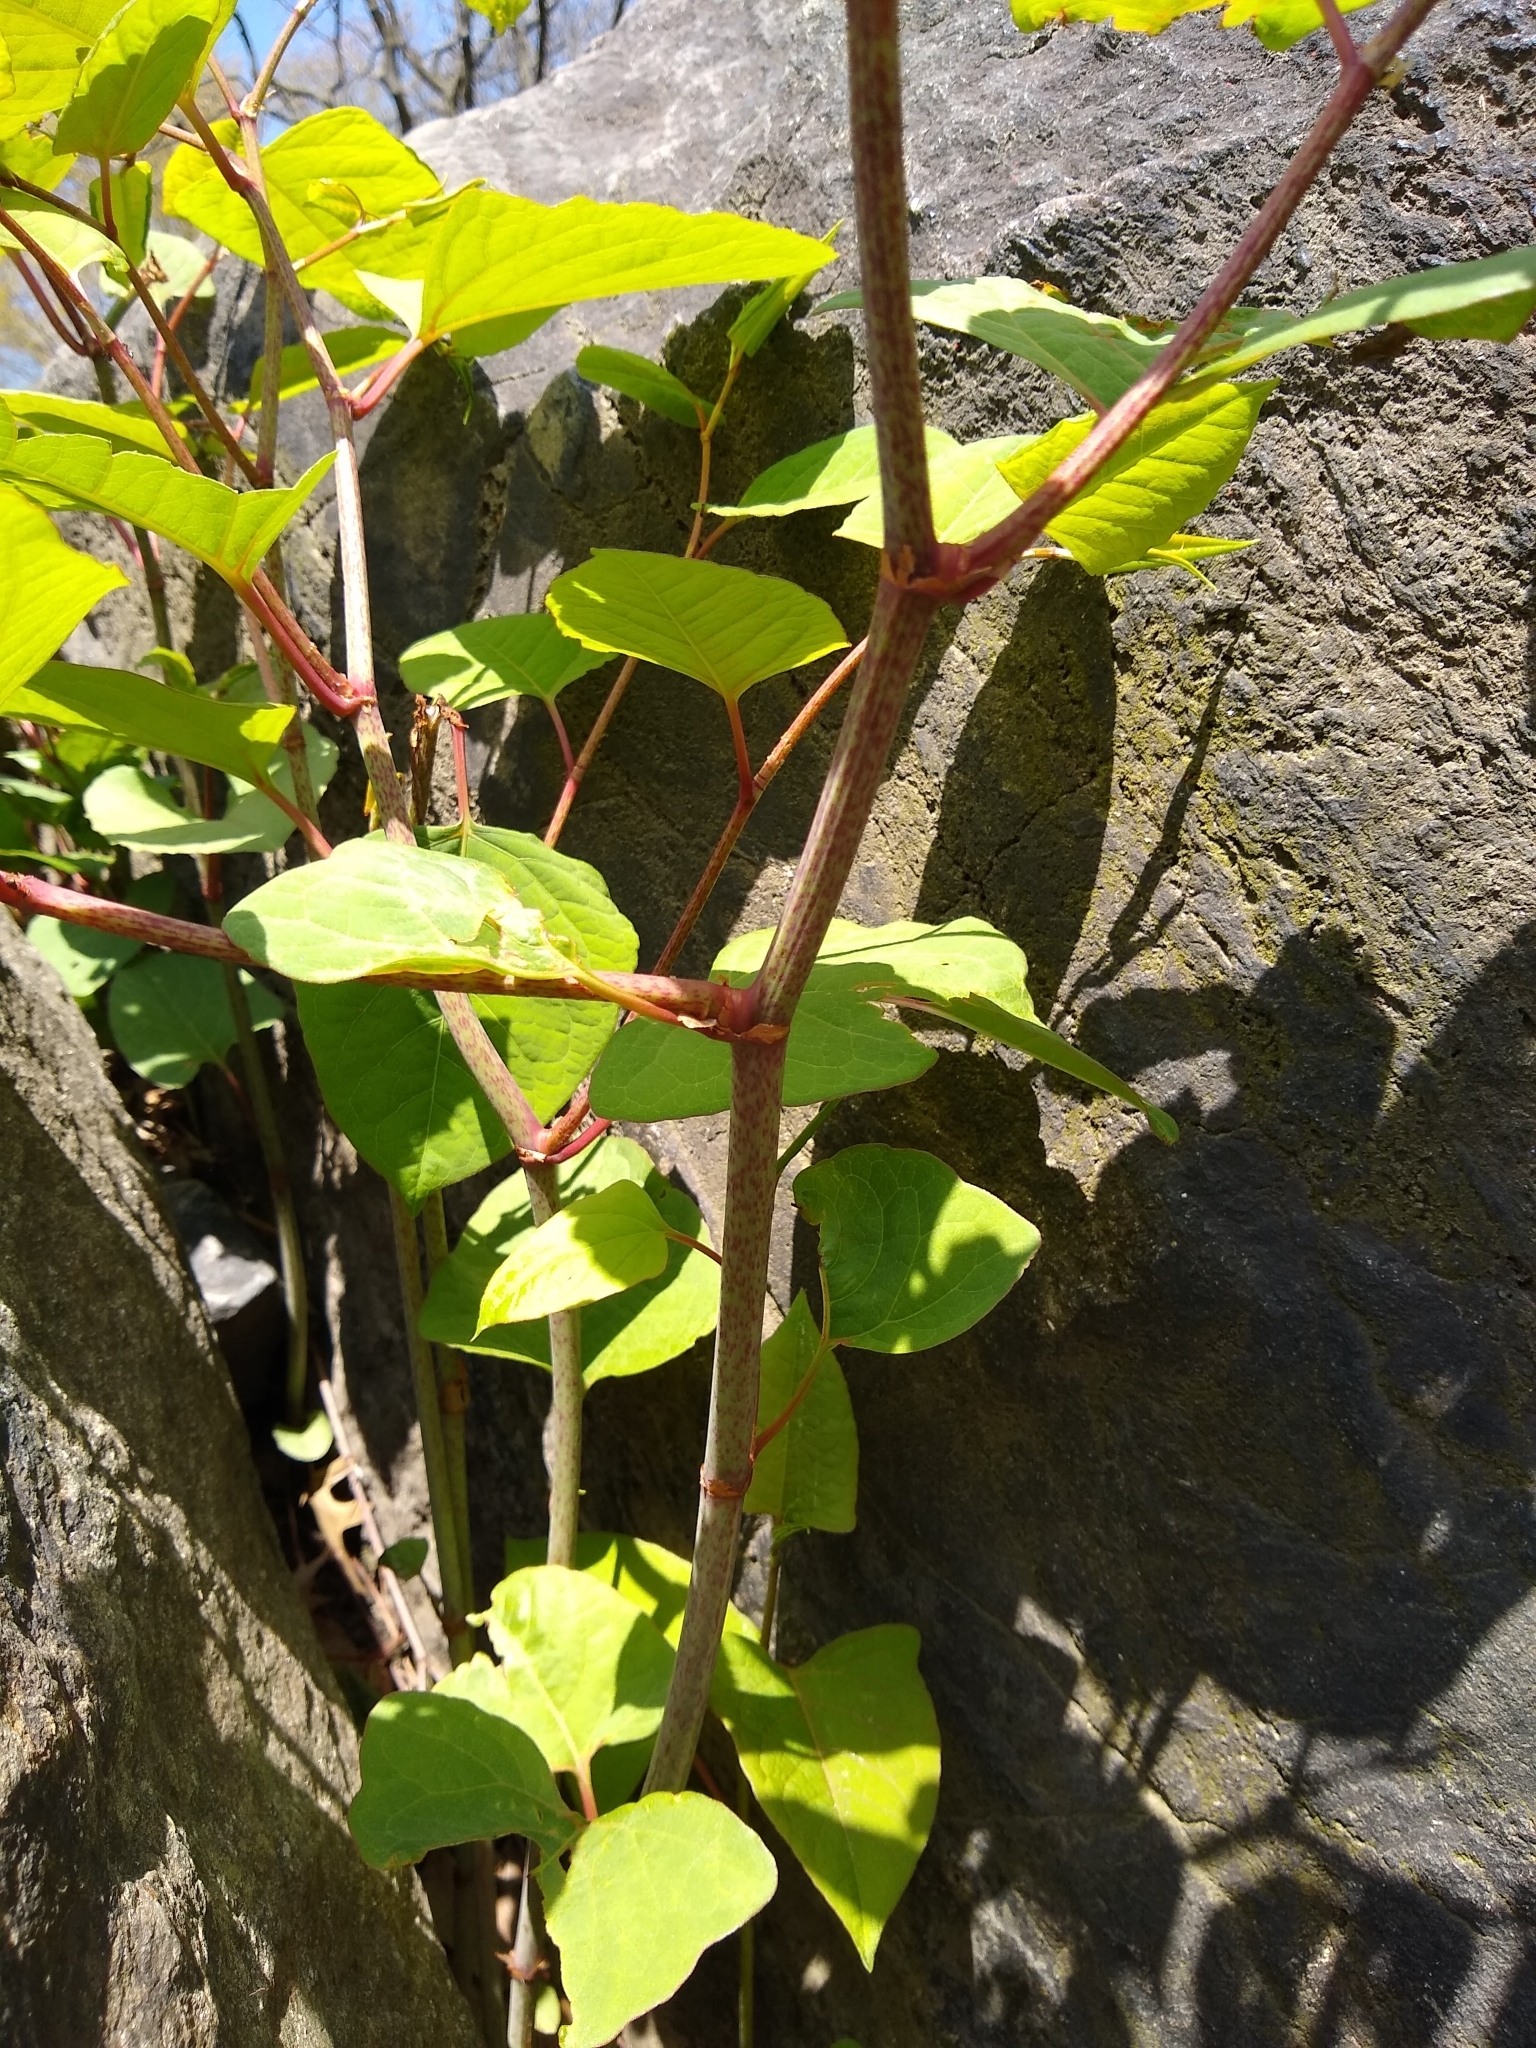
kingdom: Plantae
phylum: Tracheophyta
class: Magnoliopsida
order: Caryophyllales
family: Polygonaceae
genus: Reynoutria
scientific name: Reynoutria japonica
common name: Japanese knotweed
